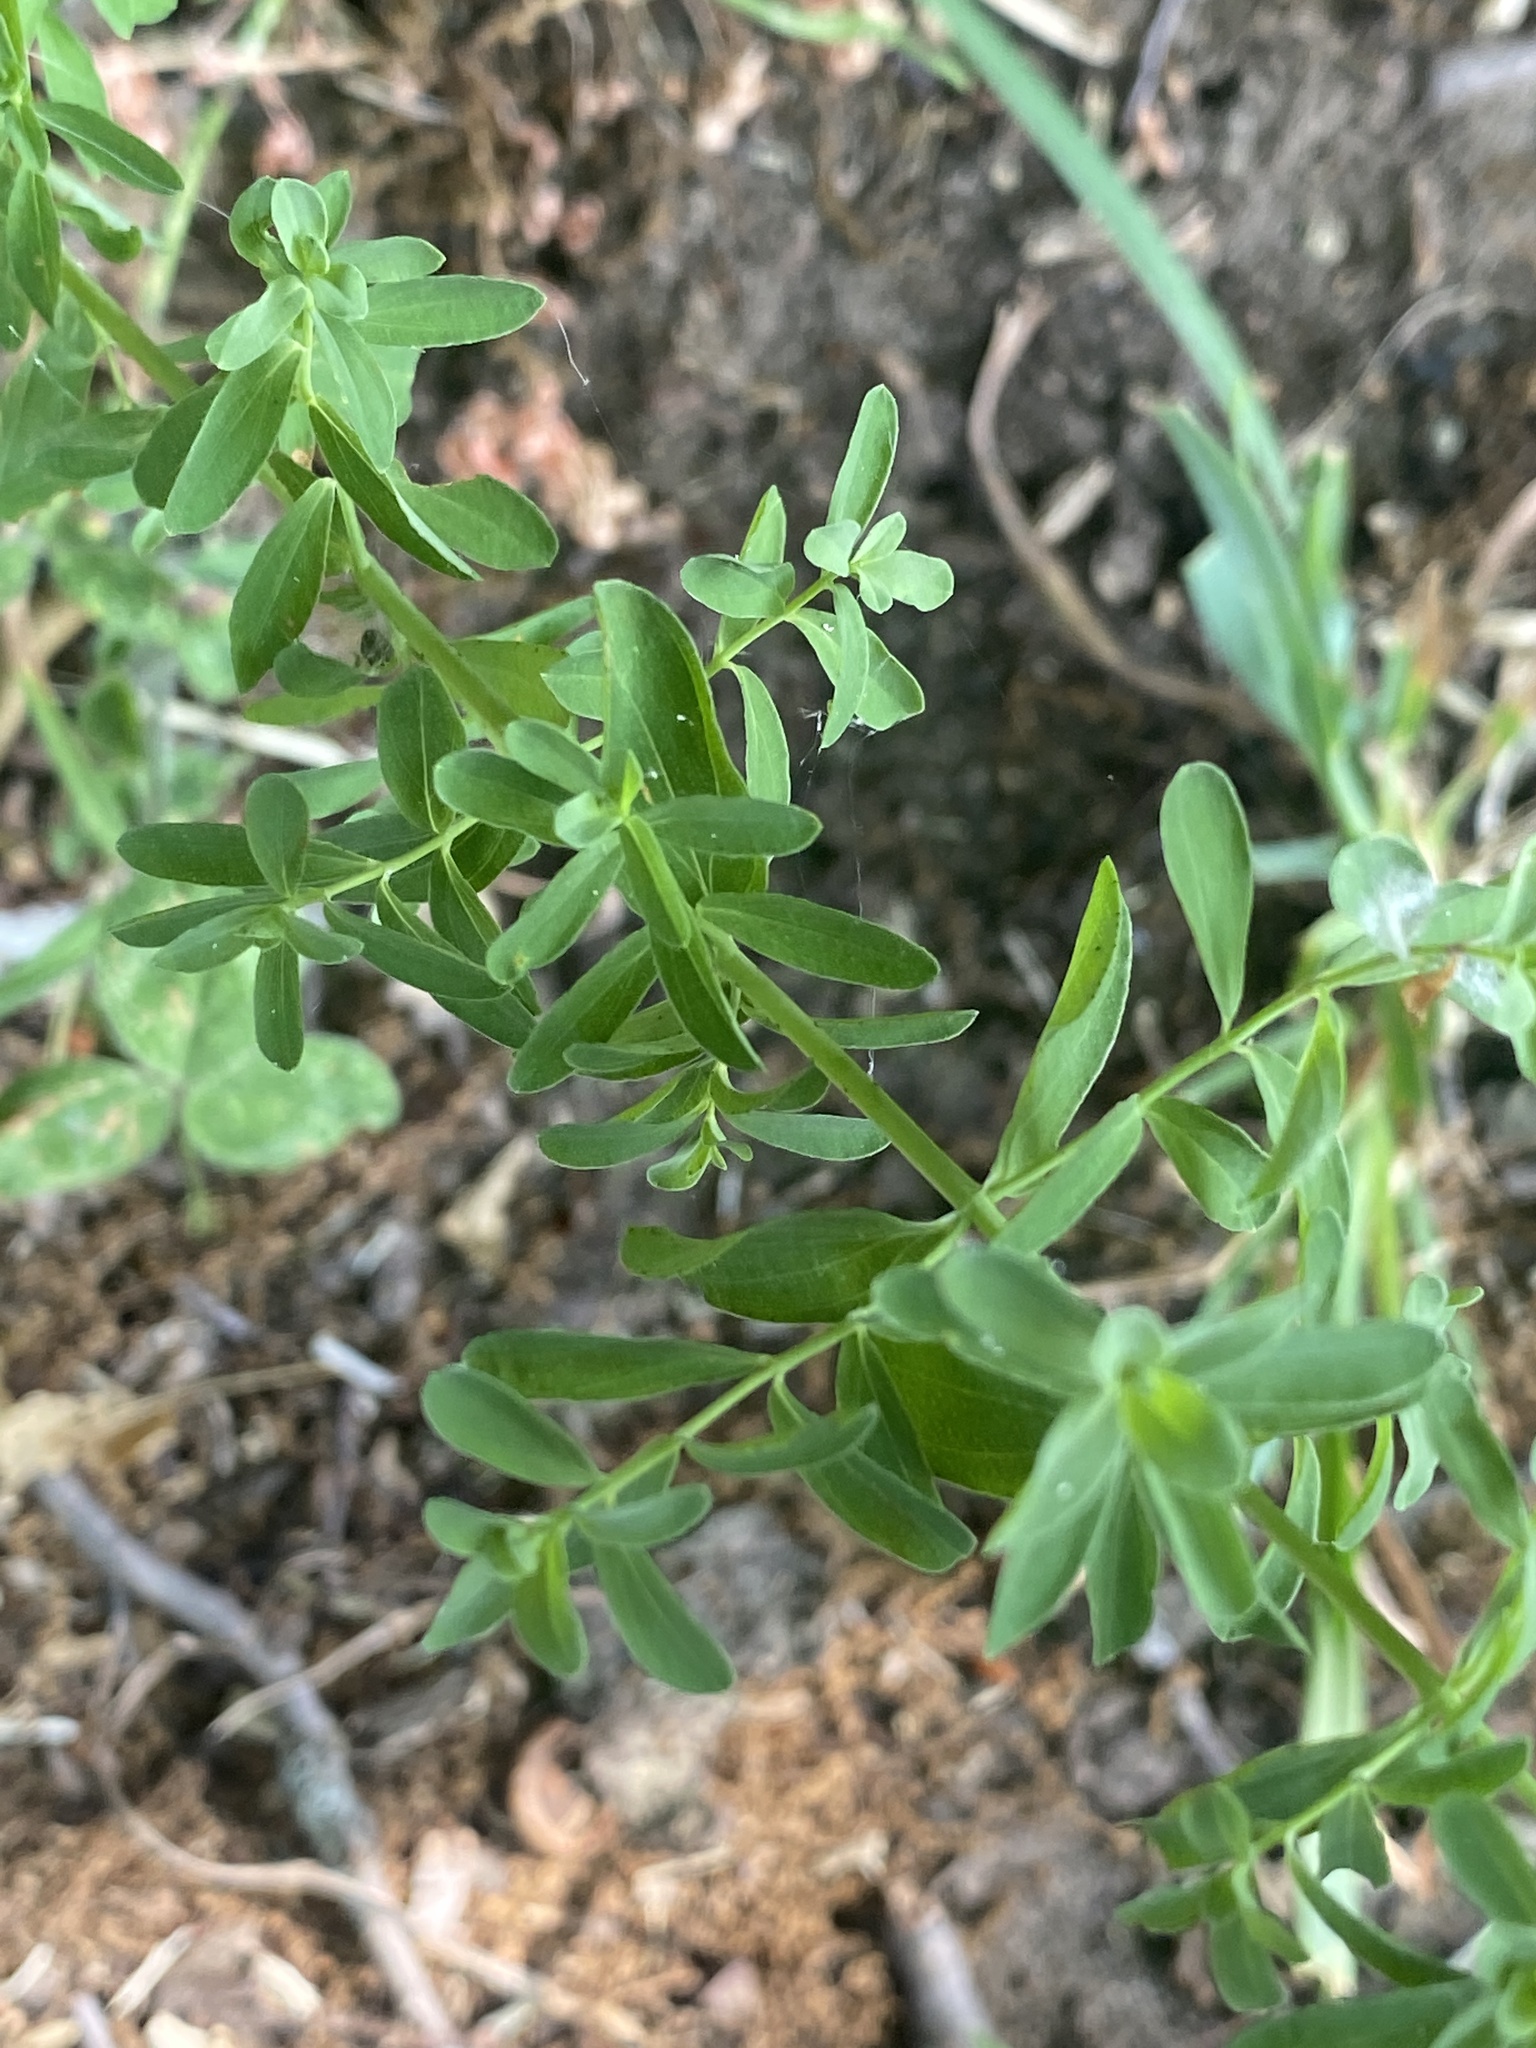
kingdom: Plantae
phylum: Tracheophyta
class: Magnoliopsida
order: Malpighiales
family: Hypericaceae
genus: Hypericum
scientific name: Hypericum perforatum
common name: Common st. johnswort
